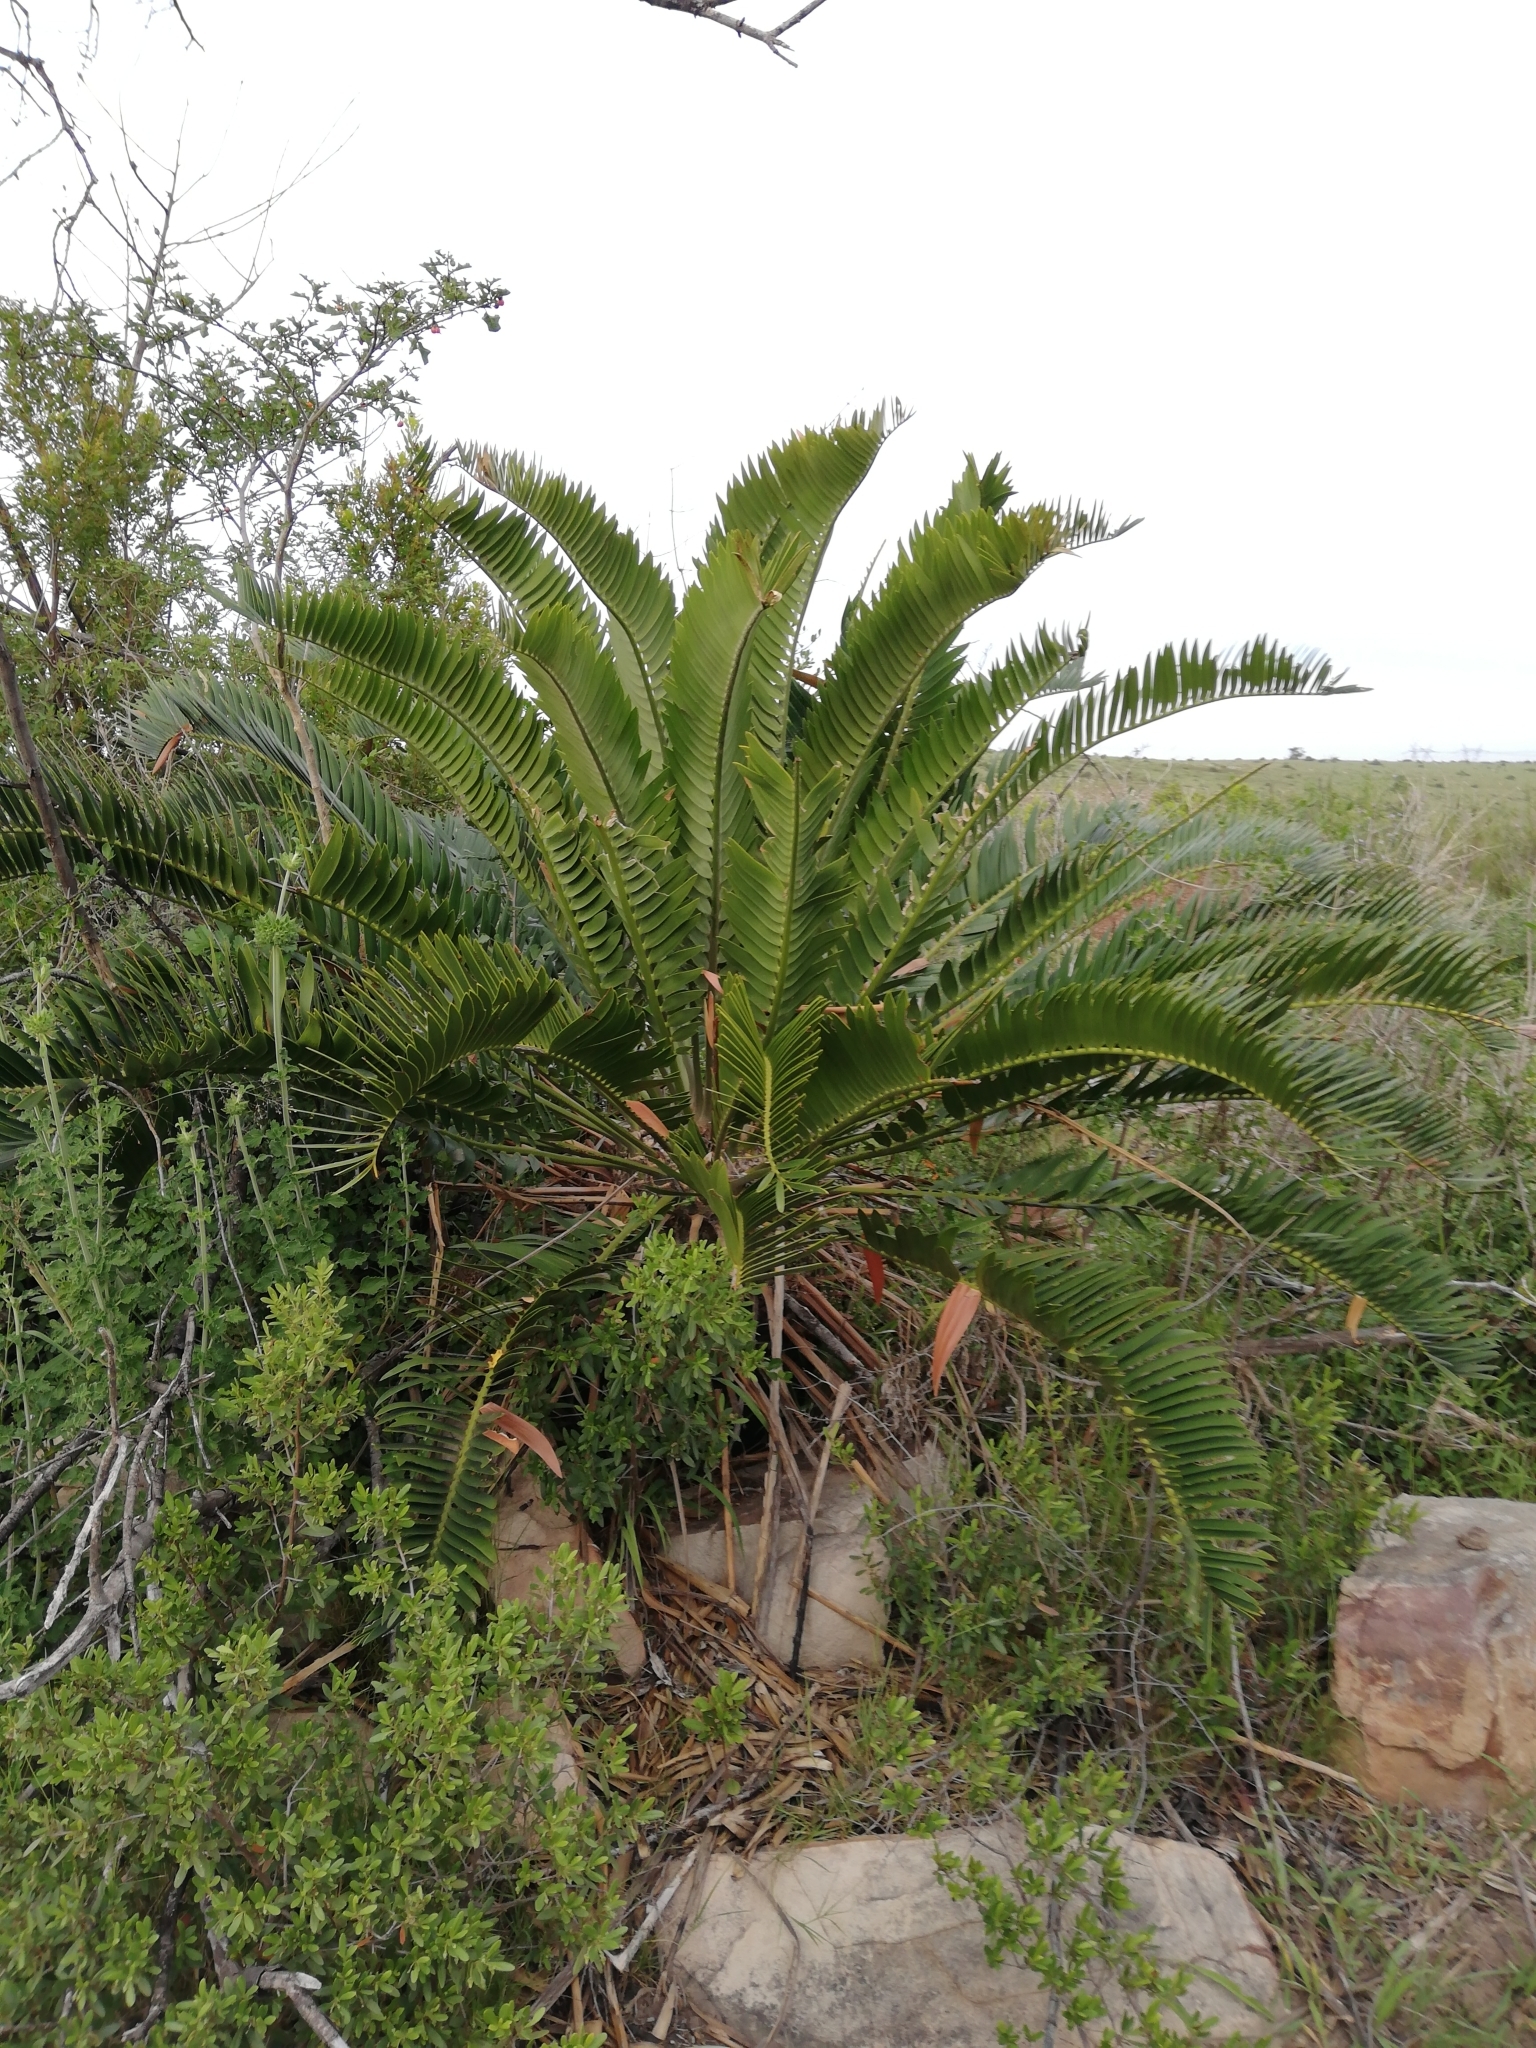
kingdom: Plantae
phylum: Tracheophyta
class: Cycadopsida
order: Cycadales
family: Zamiaceae
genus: Encephalartos
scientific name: Encephalartos longifolius
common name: Suurberg cycad
